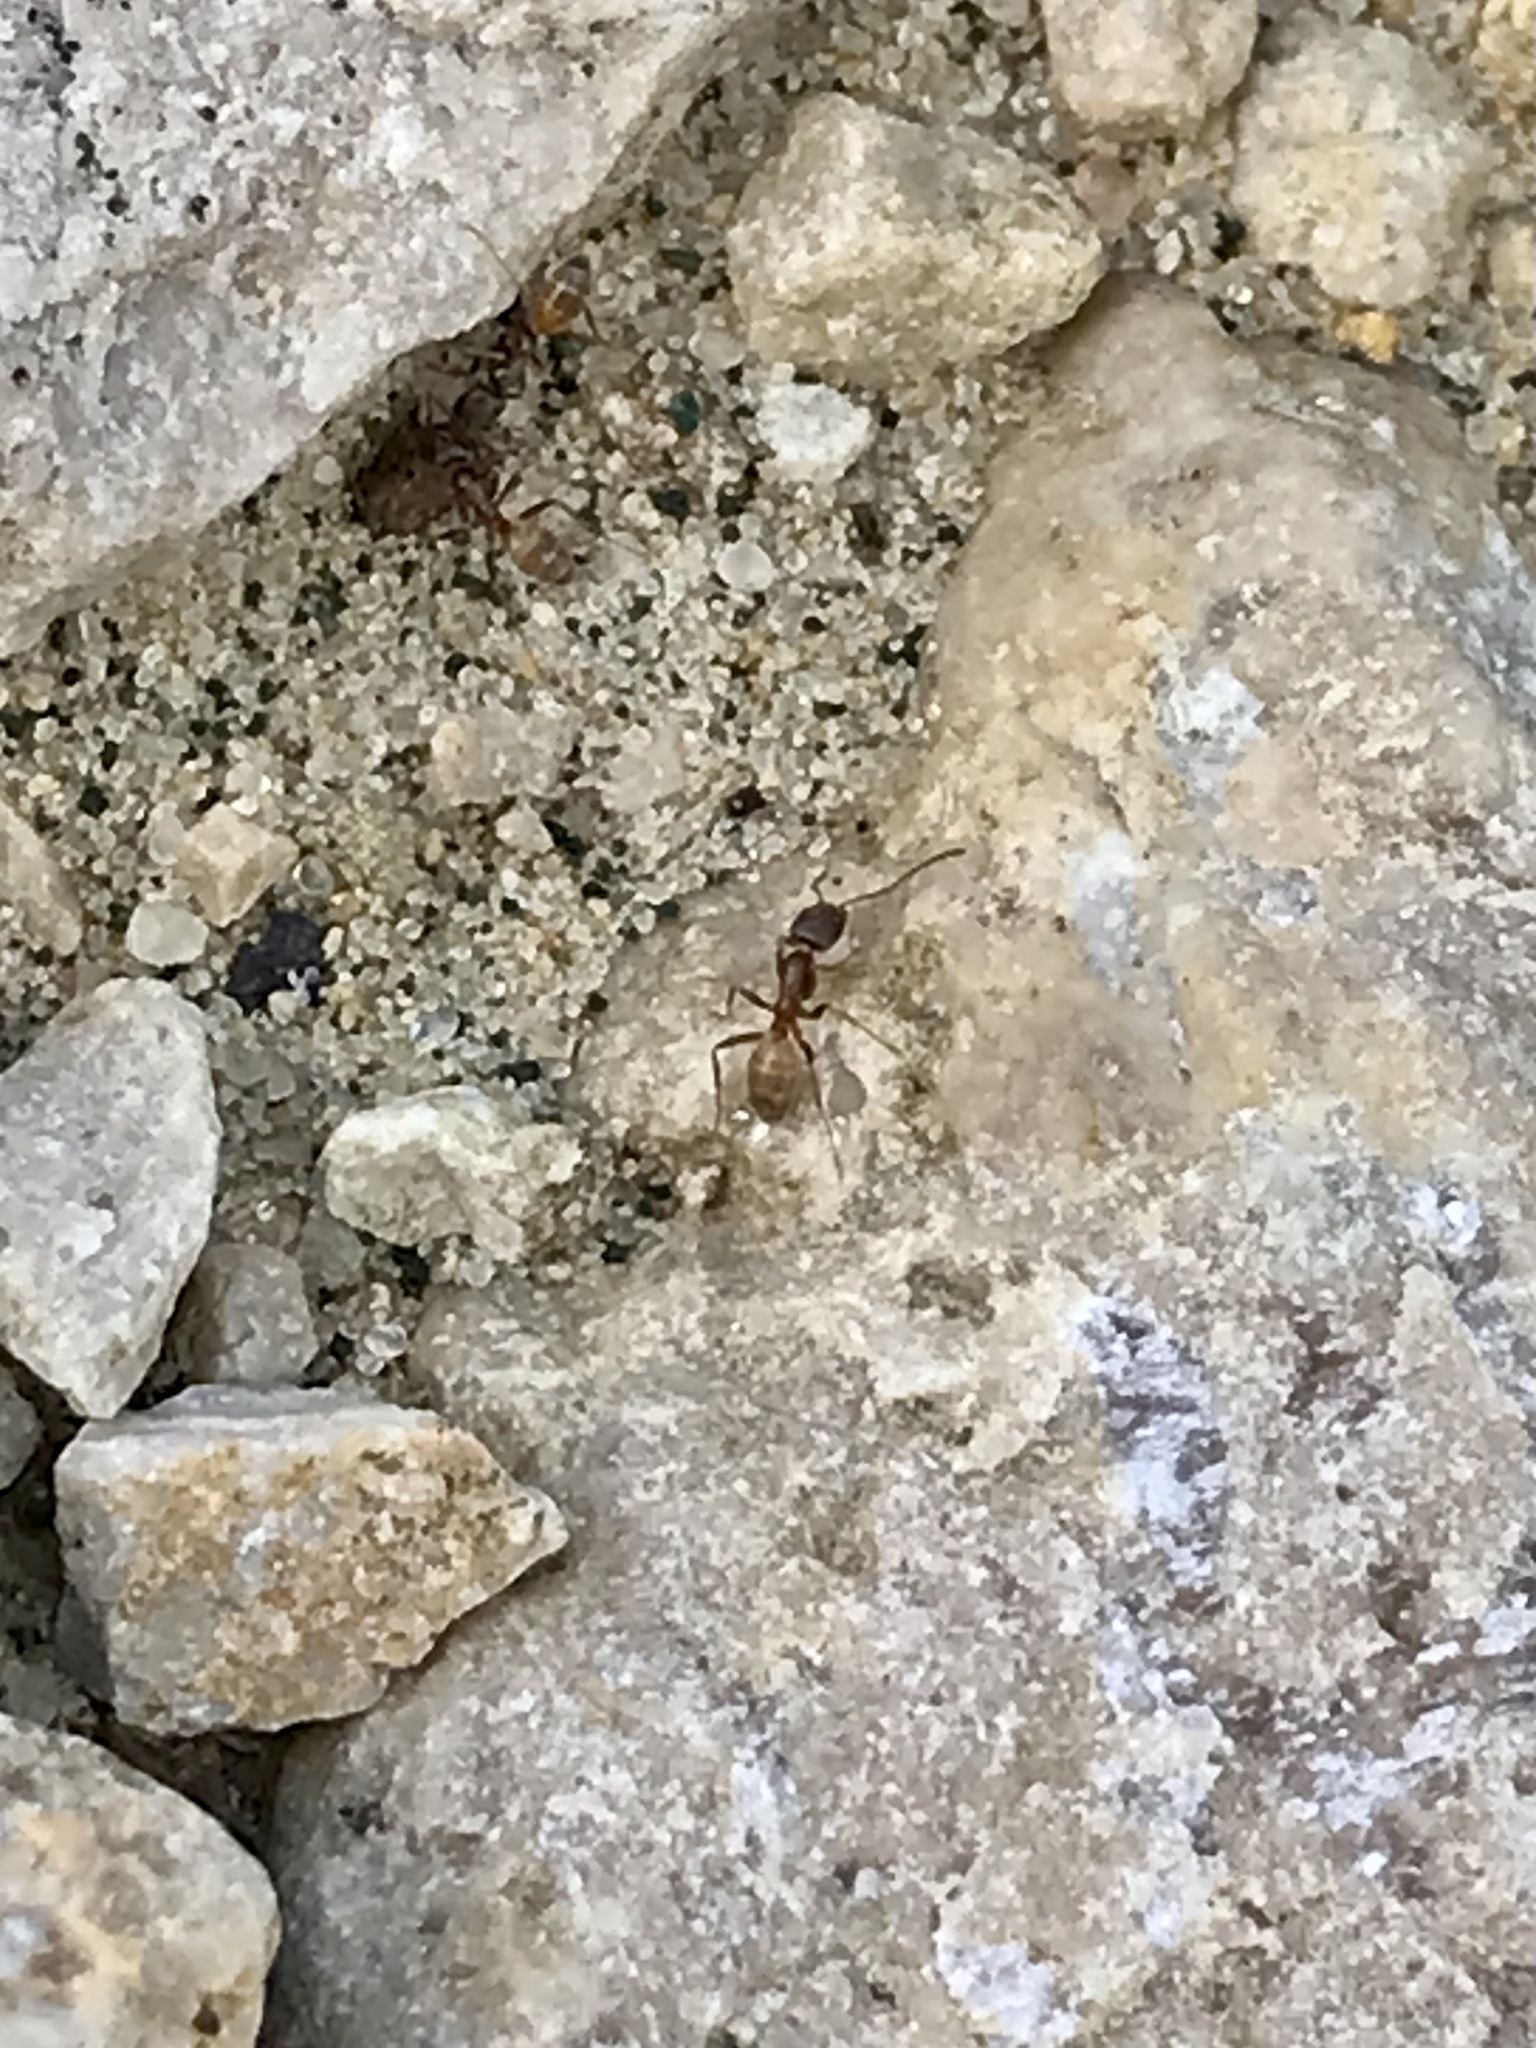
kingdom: Animalia
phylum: Arthropoda
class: Insecta
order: Hymenoptera
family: Formicidae
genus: Forelius
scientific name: Forelius pruinosus
